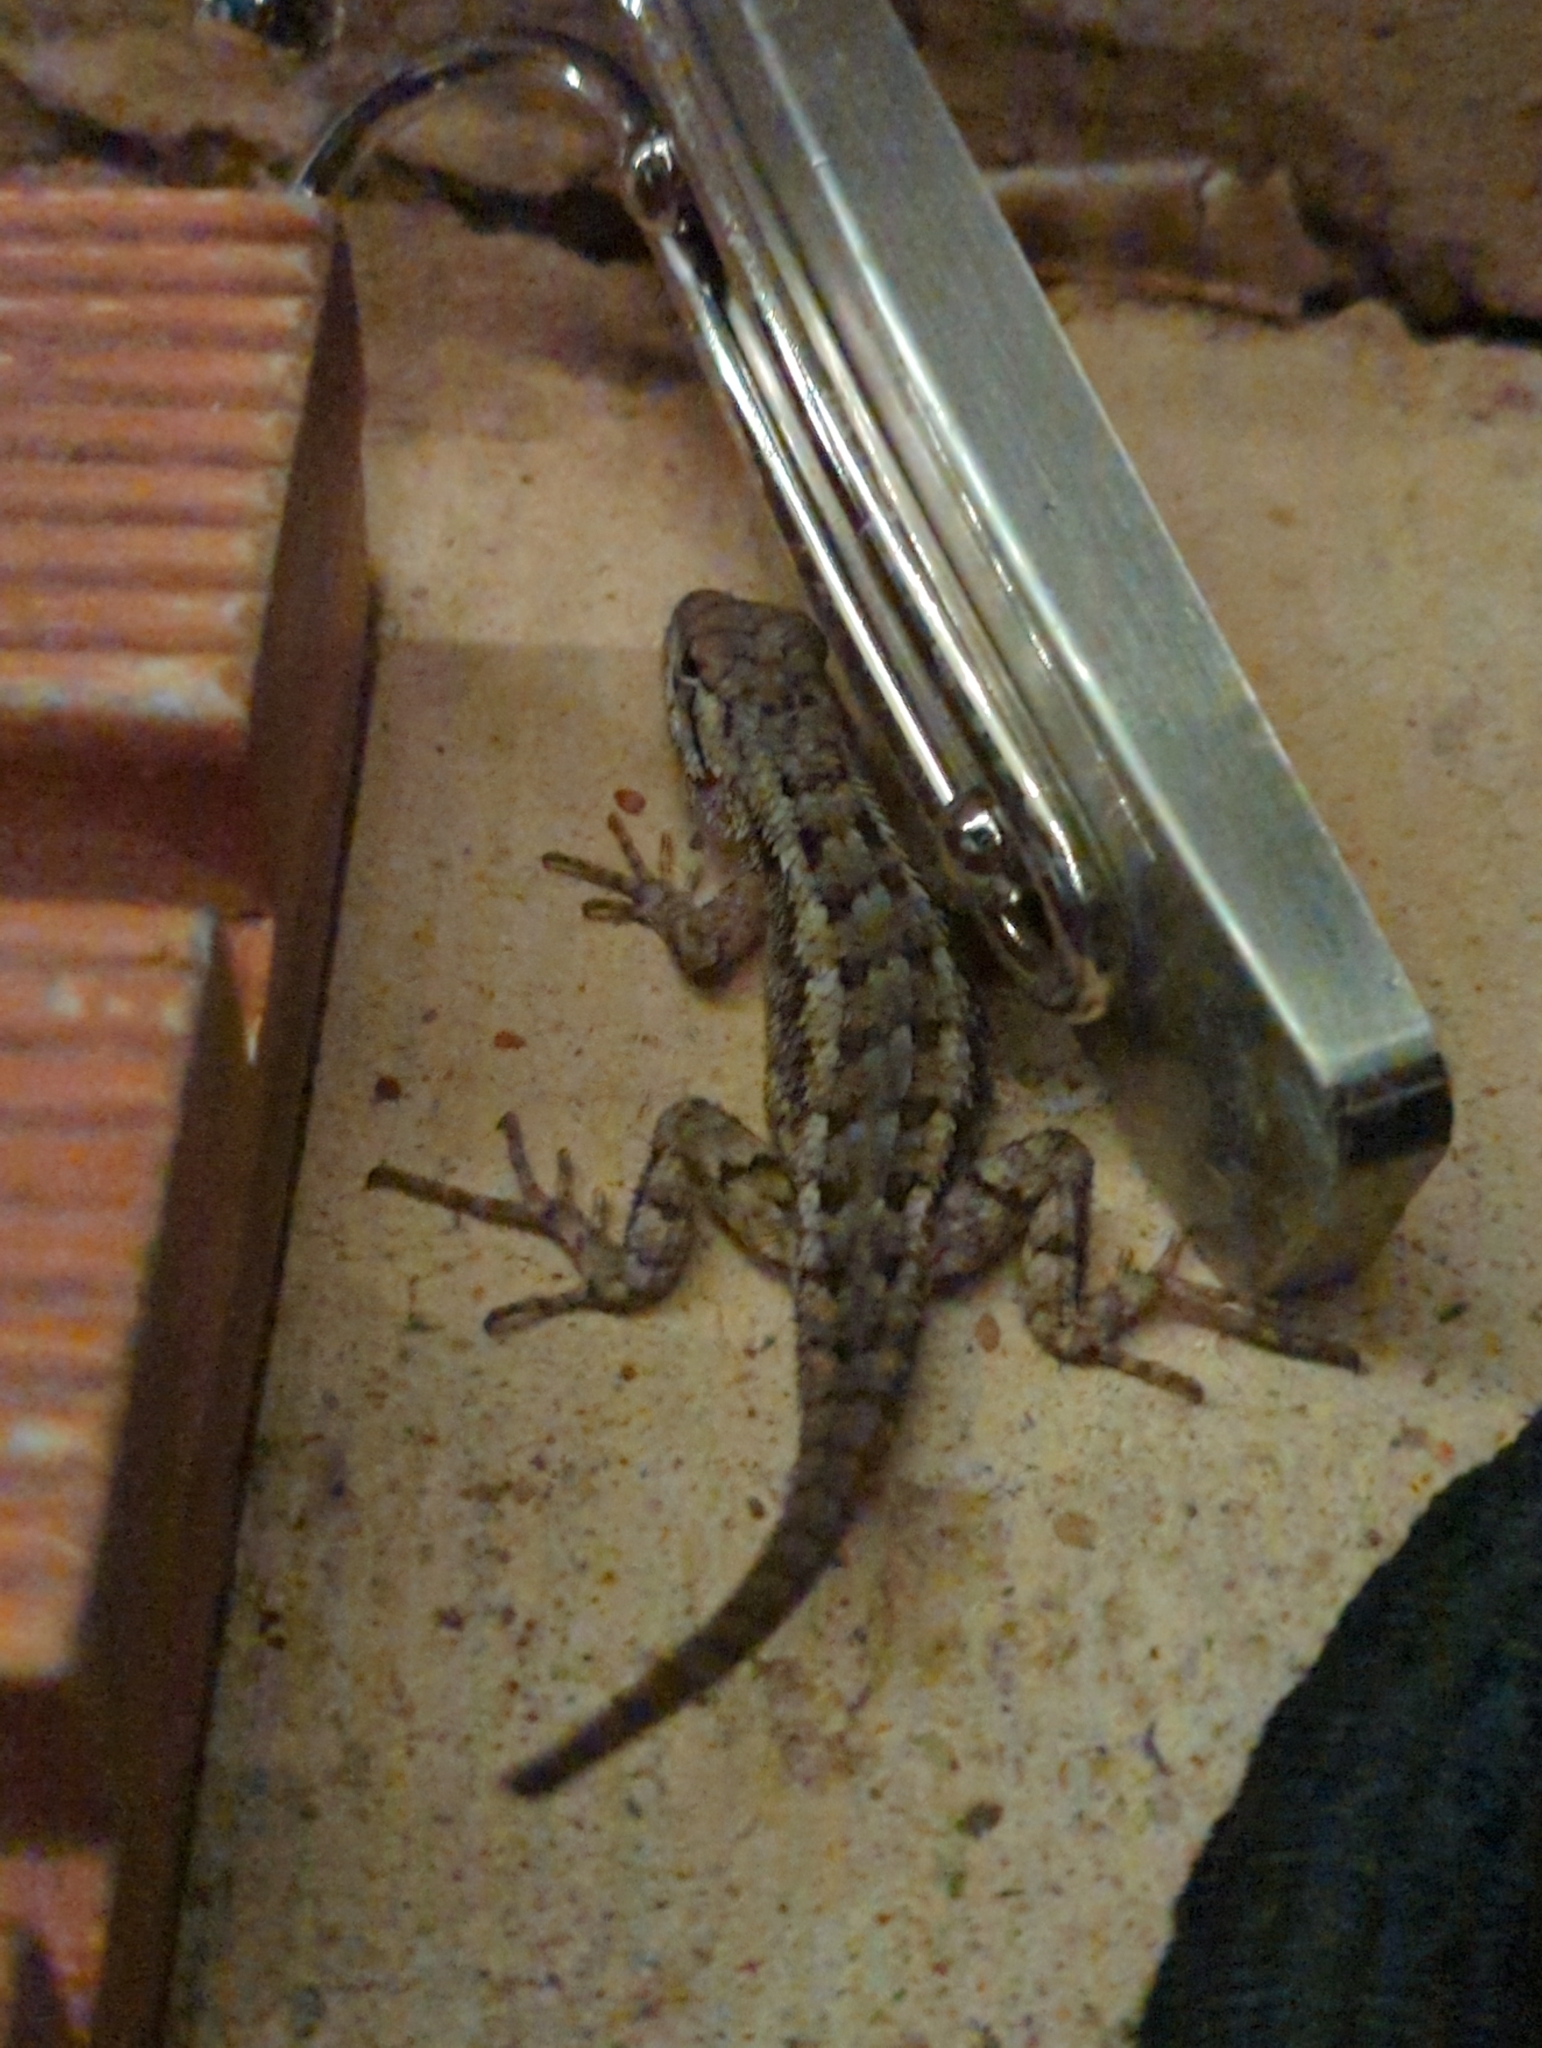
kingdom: Animalia
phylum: Chordata
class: Squamata
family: Phrynosomatidae
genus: Sceloporus
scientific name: Sceloporus olivaceus
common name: Texas spiny lizard
